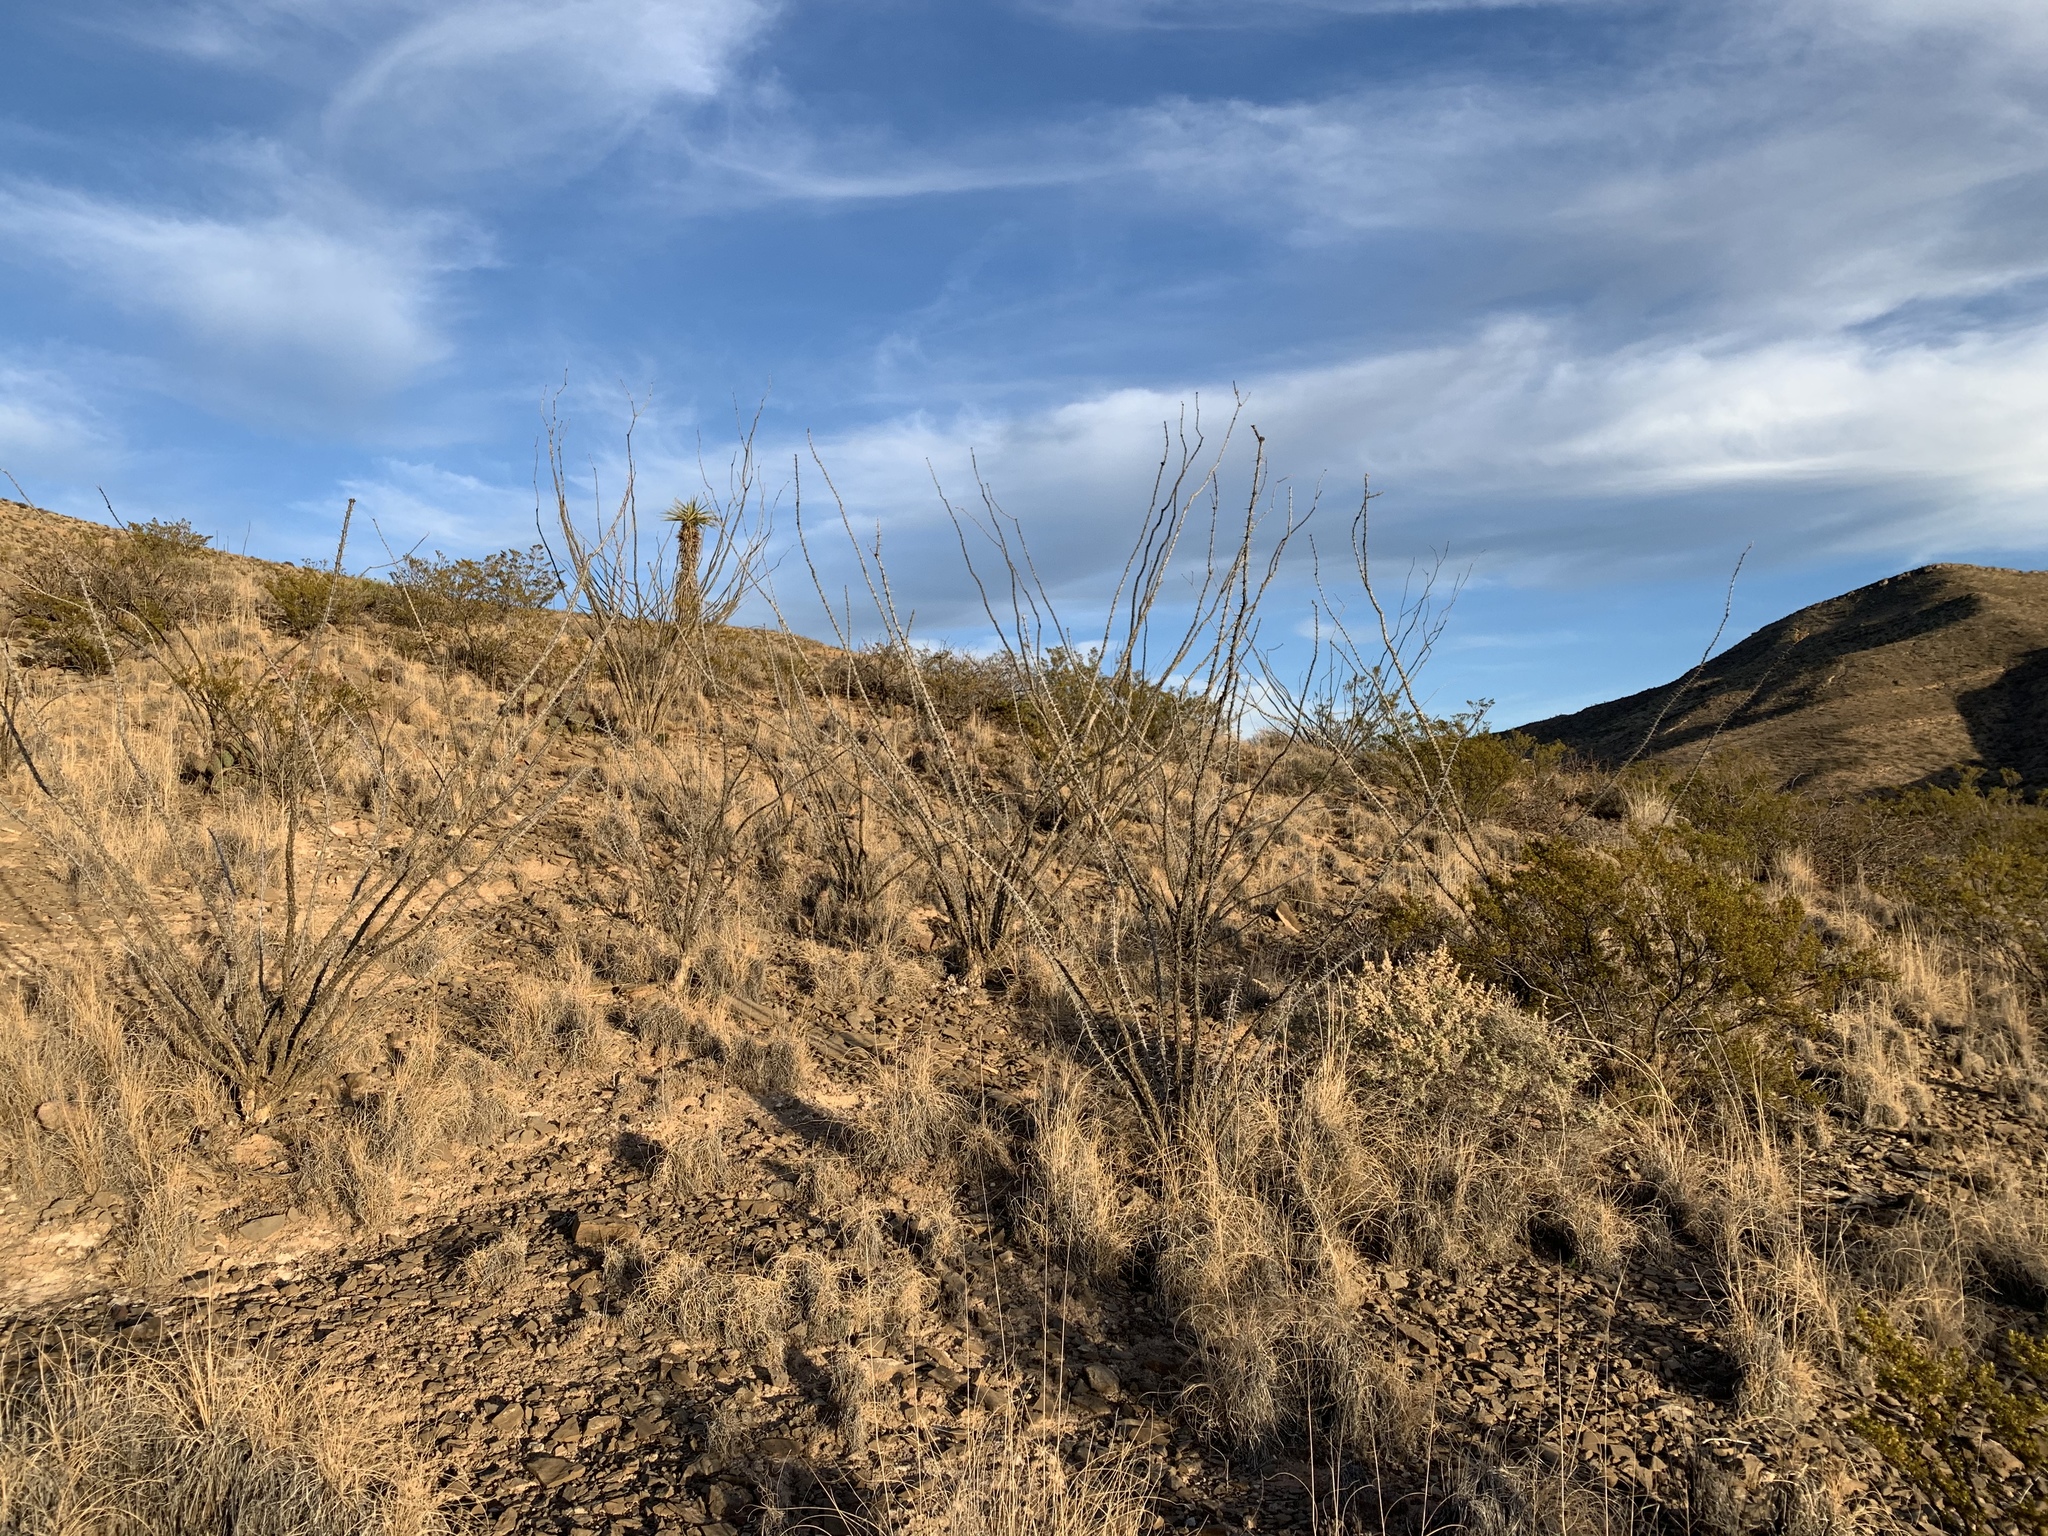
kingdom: Plantae
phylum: Tracheophyta
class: Magnoliopsida
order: Ericales
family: Fouquieriaceae
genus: Fouquieria
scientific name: Fouquieria splendens
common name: Vine-cactus
